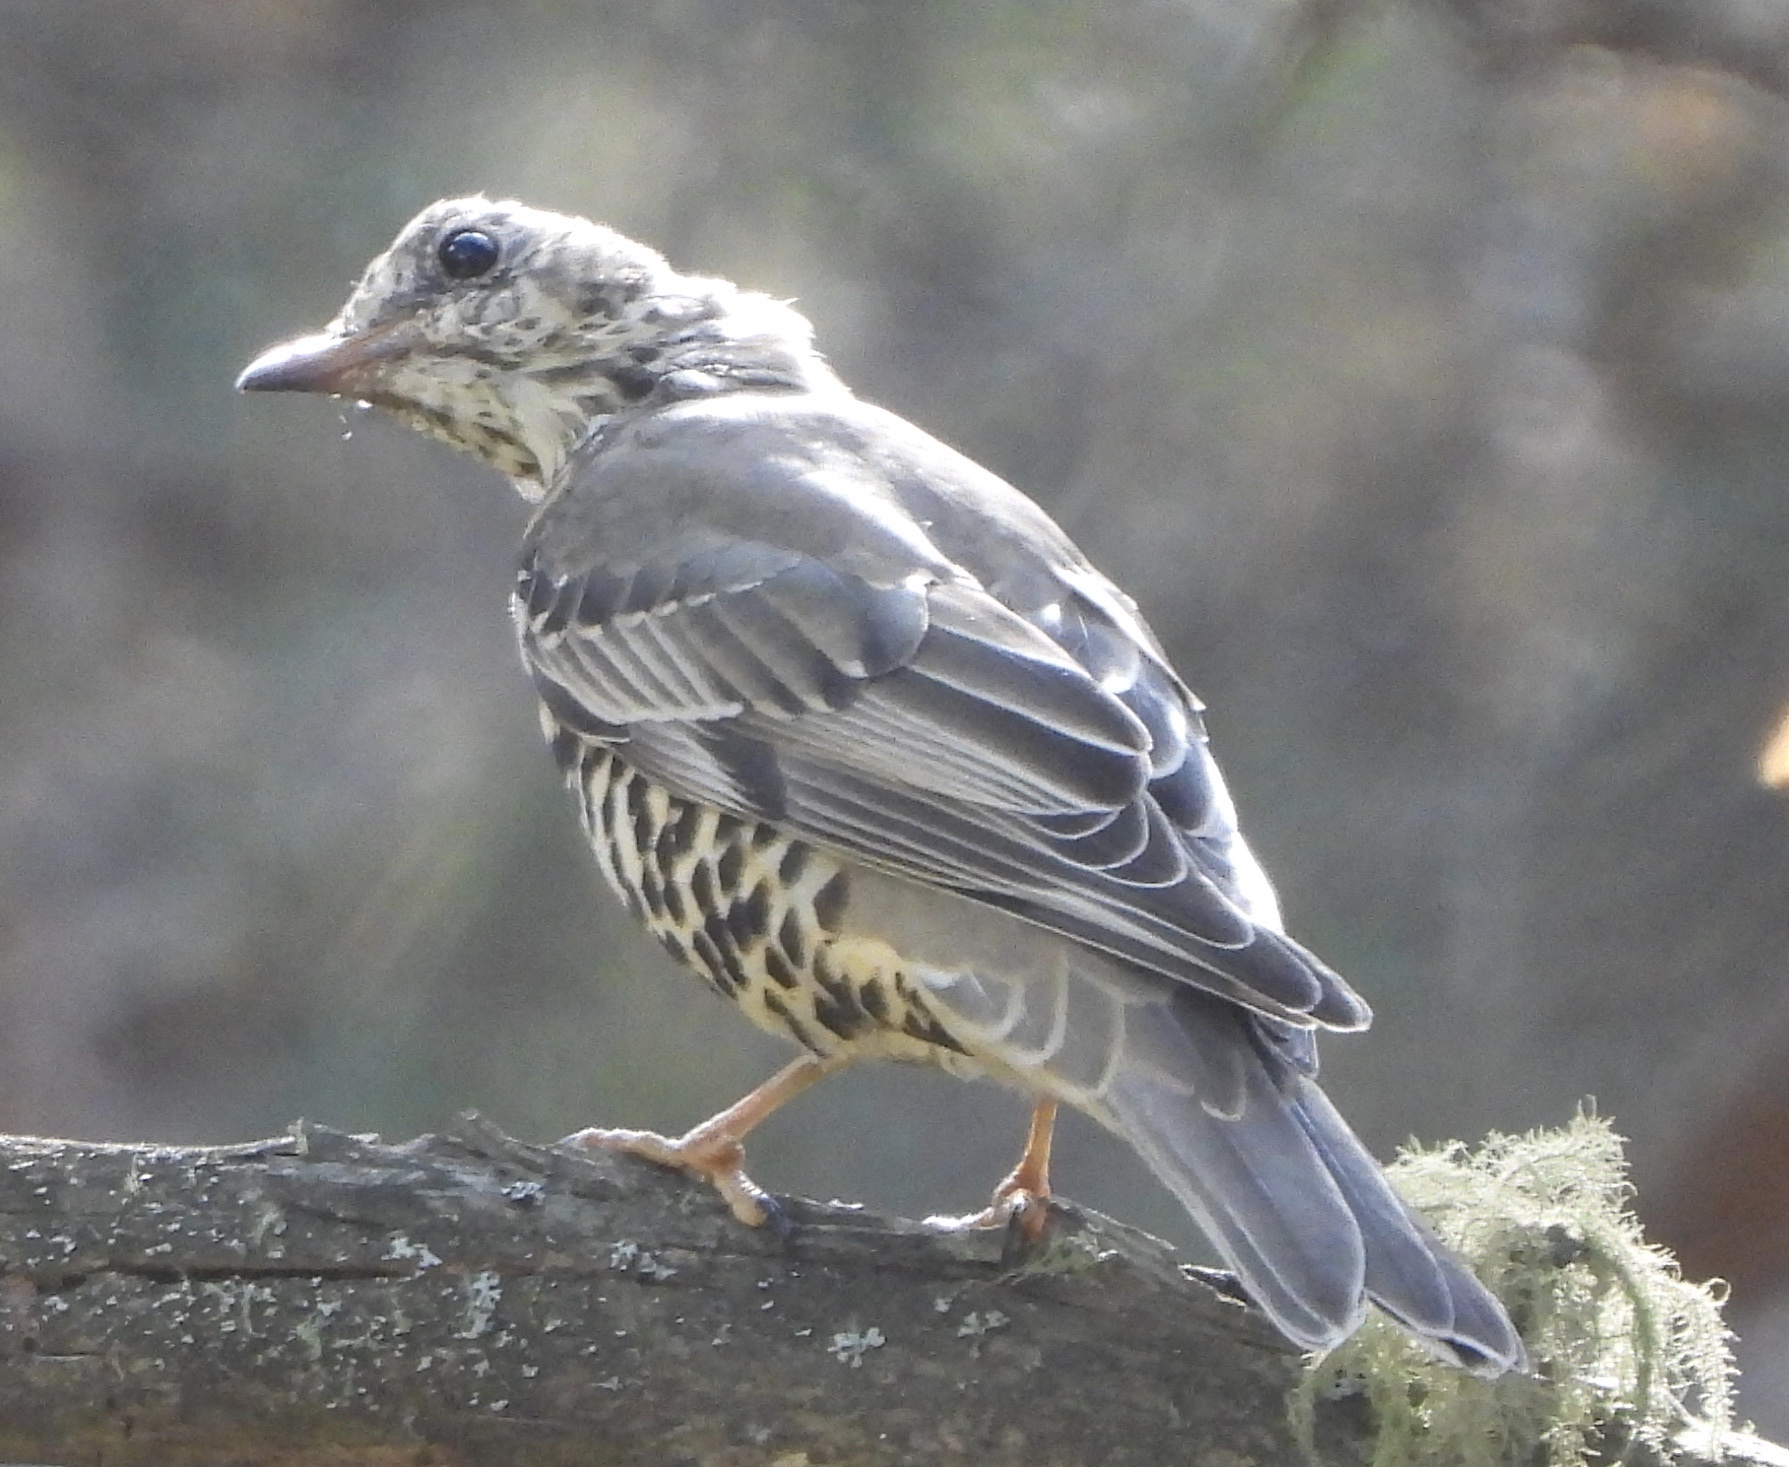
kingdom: Animalia
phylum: Chordata
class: Aves
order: Passeriformes
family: Turdidae
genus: Turdus
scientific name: Turdus viscivorus
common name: Mistle thrush
